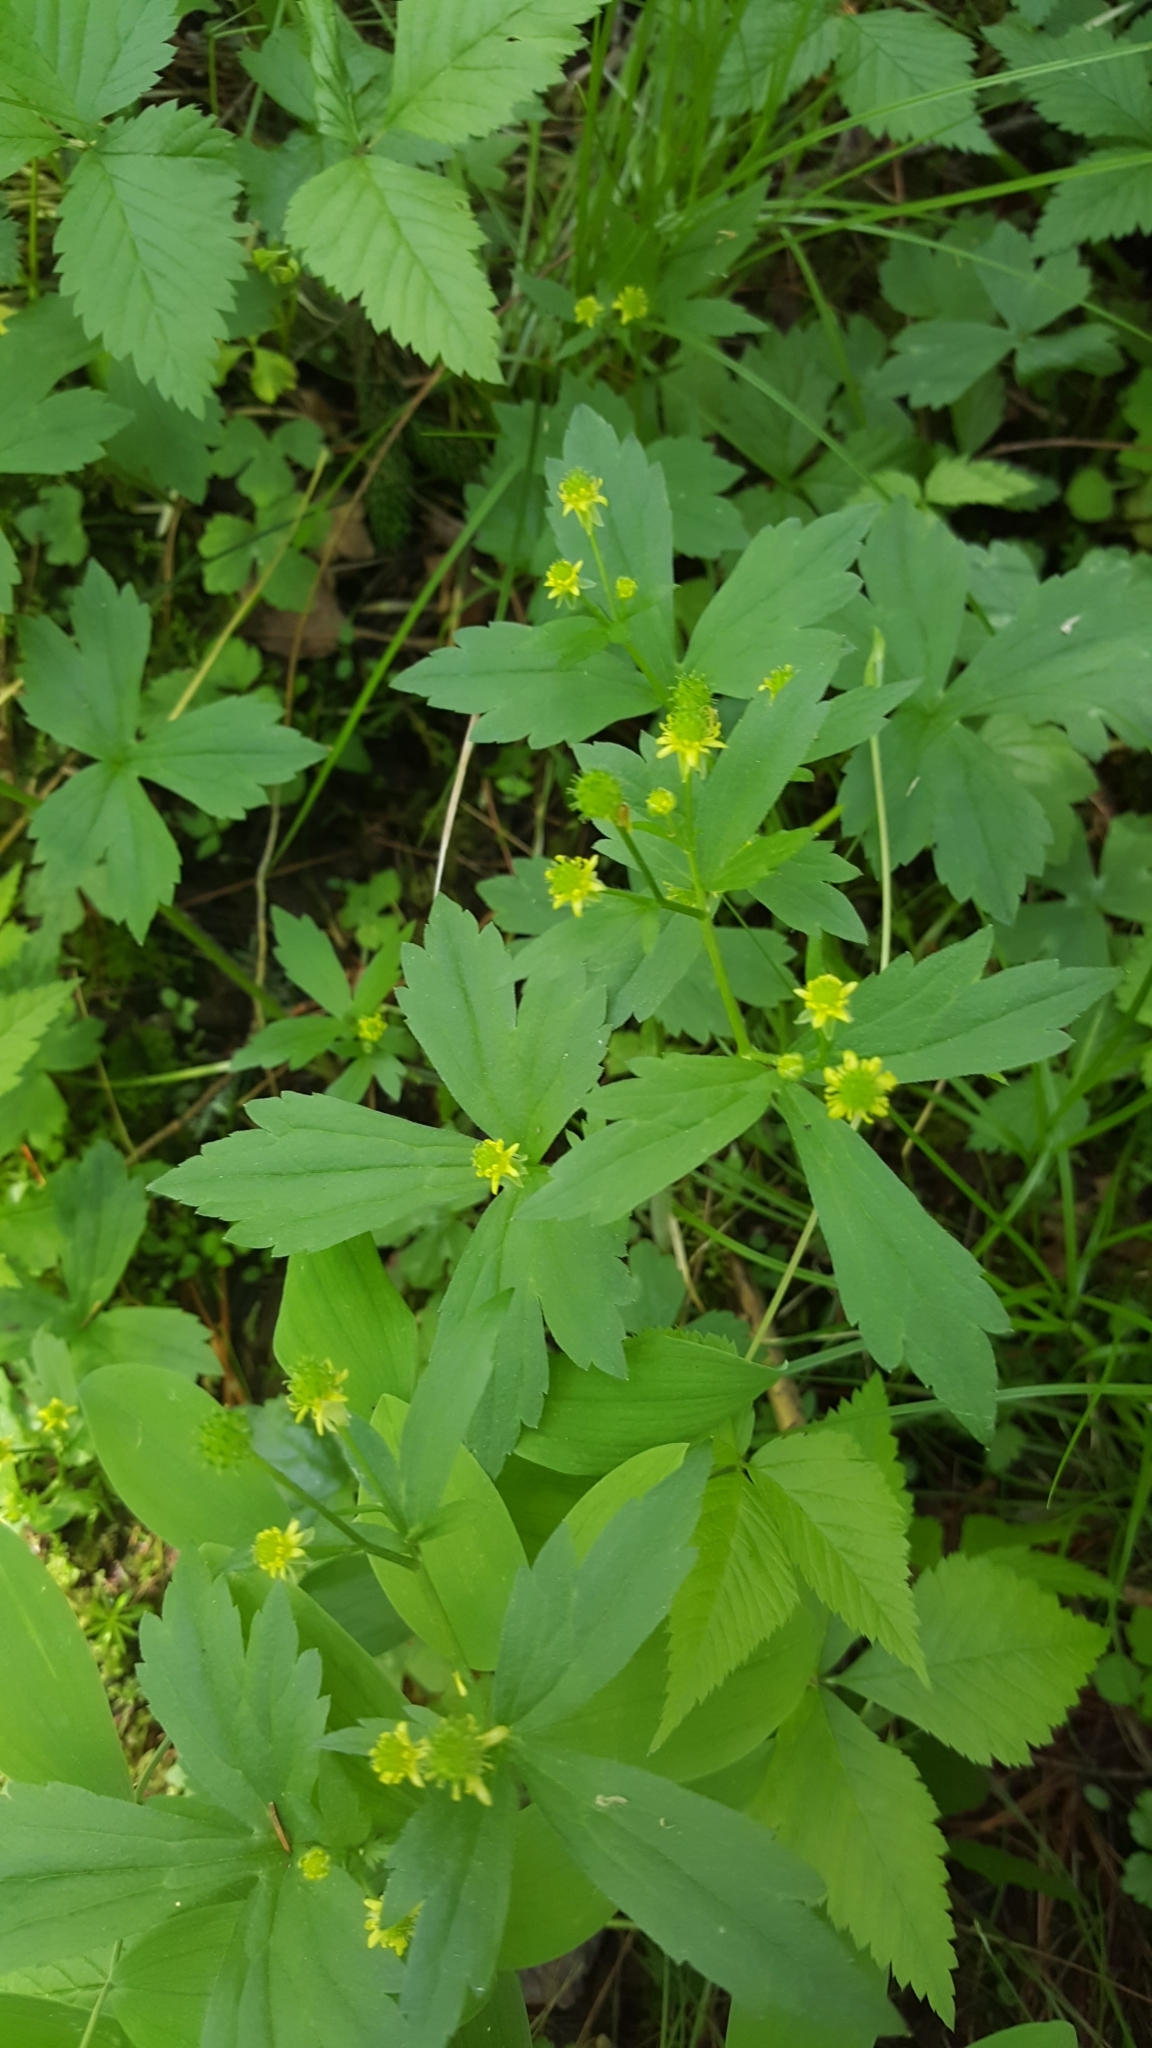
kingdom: Plantae
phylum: Tracheophyta
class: Magnoliopsida
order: Ranunculales
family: Ranunculaceae
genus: Ranunculus
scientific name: Ranunculus recurvatus
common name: Blisterwort
